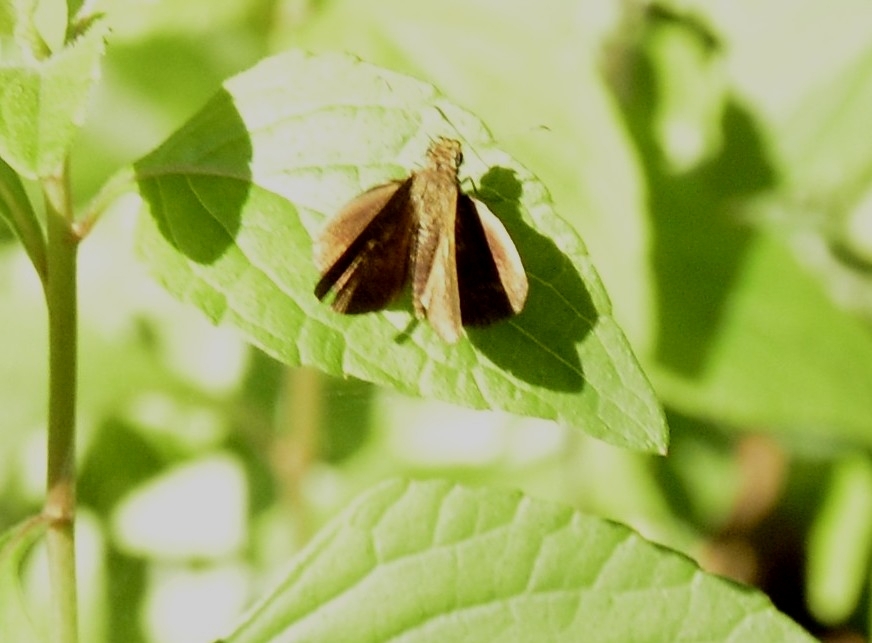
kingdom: Animalia
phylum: Arthropoda
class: Insecta
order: Lepidoptera
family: Hesperiidae
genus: Iambrix
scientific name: Iambrix salsala
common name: Chestnut bob
